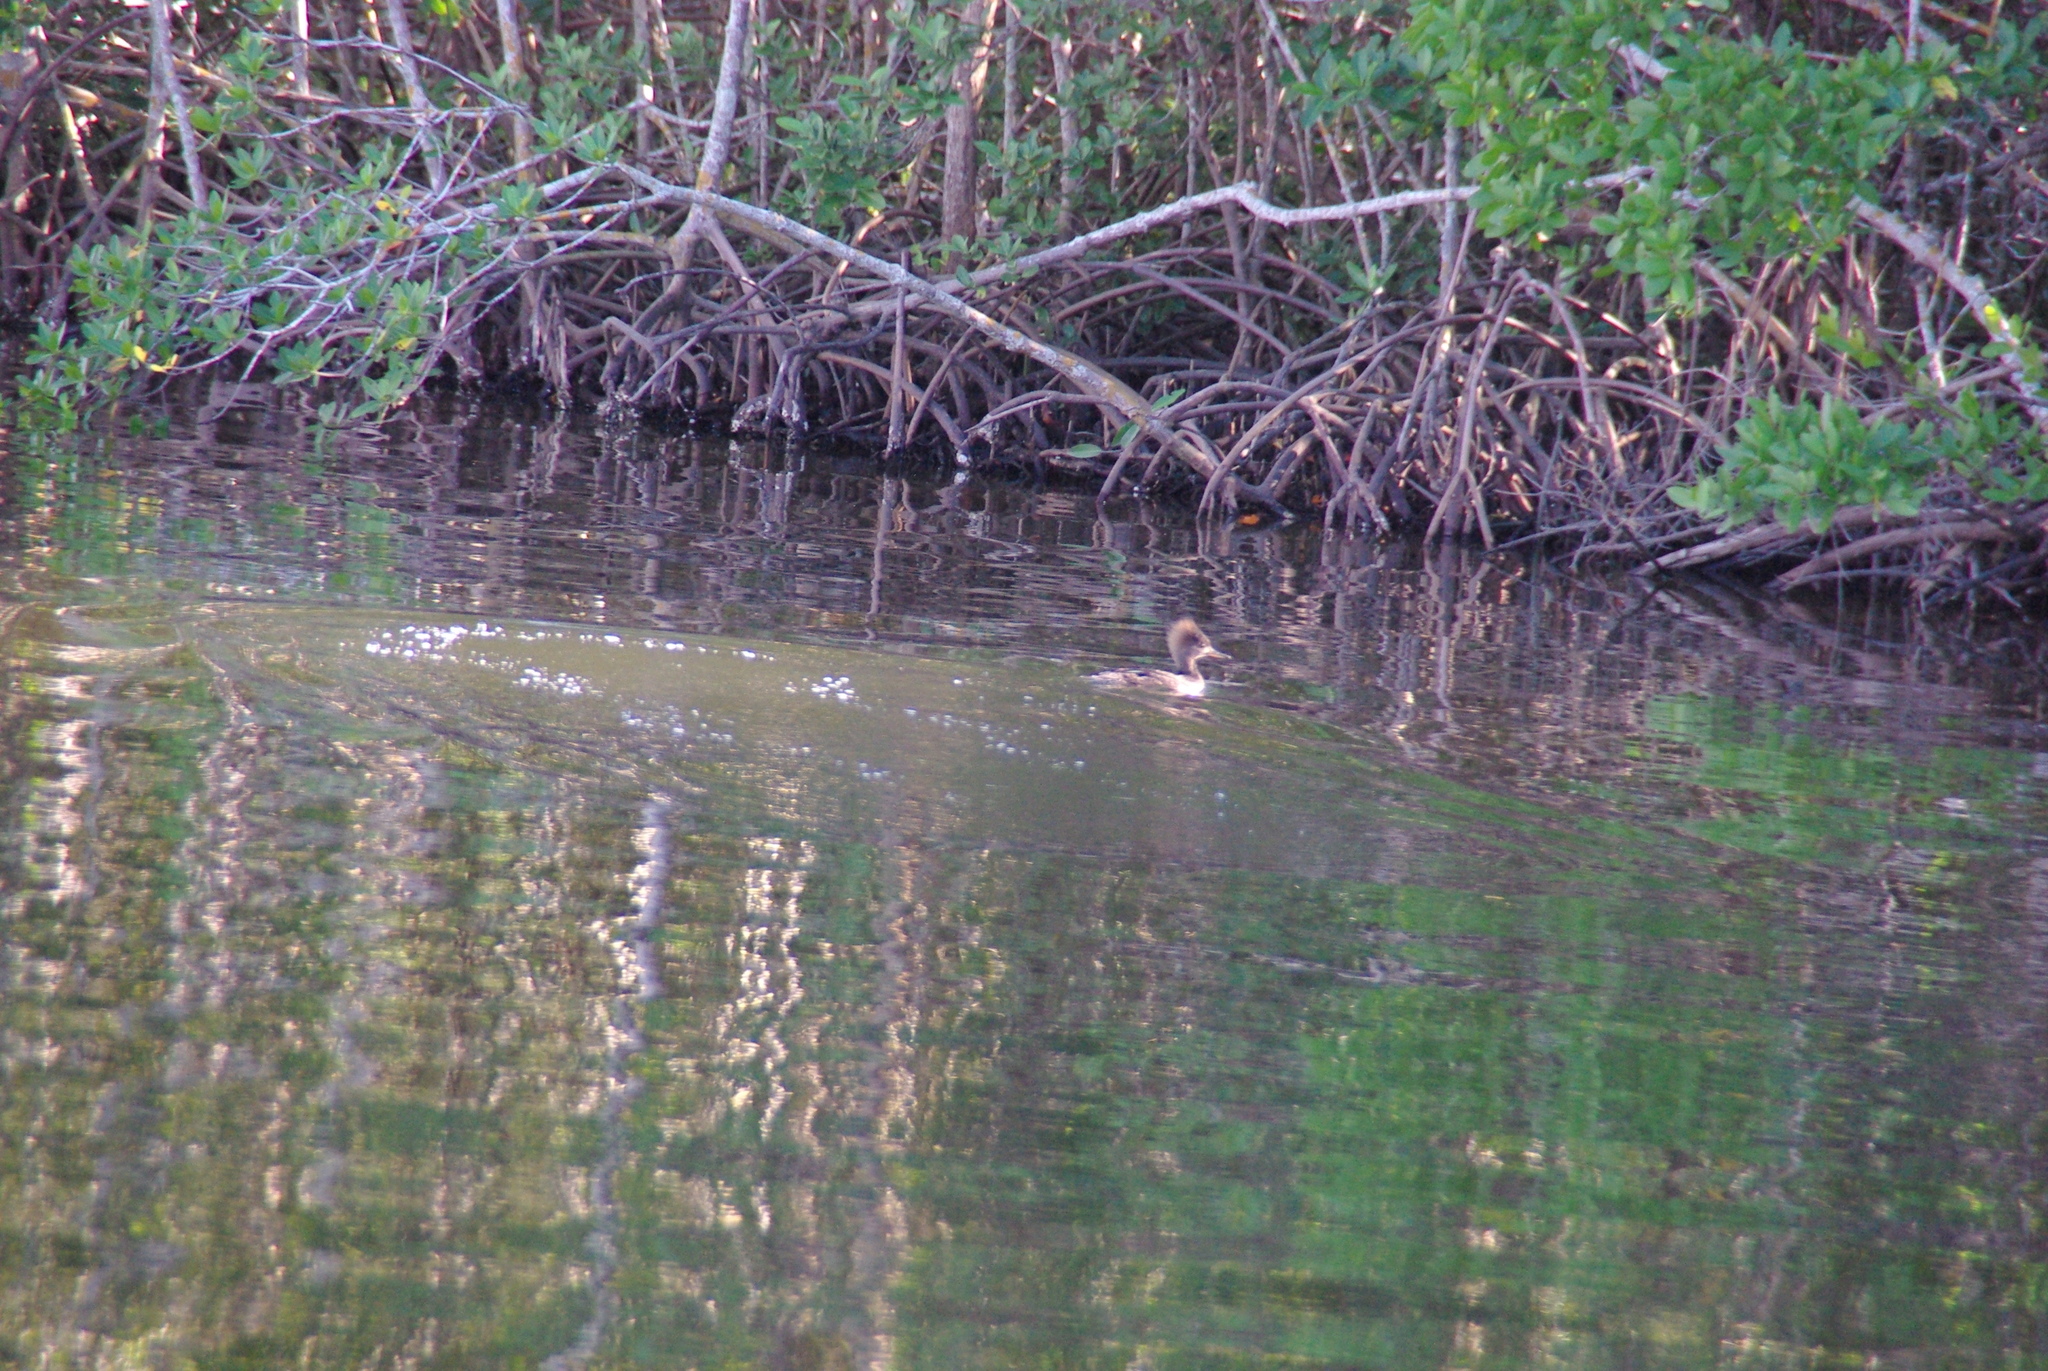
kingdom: Animalia
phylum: Chordata
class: Aves
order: Anseriformes
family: Anatidae
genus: Lophodytes
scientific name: Lophodytes cucullatus
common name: Hooded merganser
